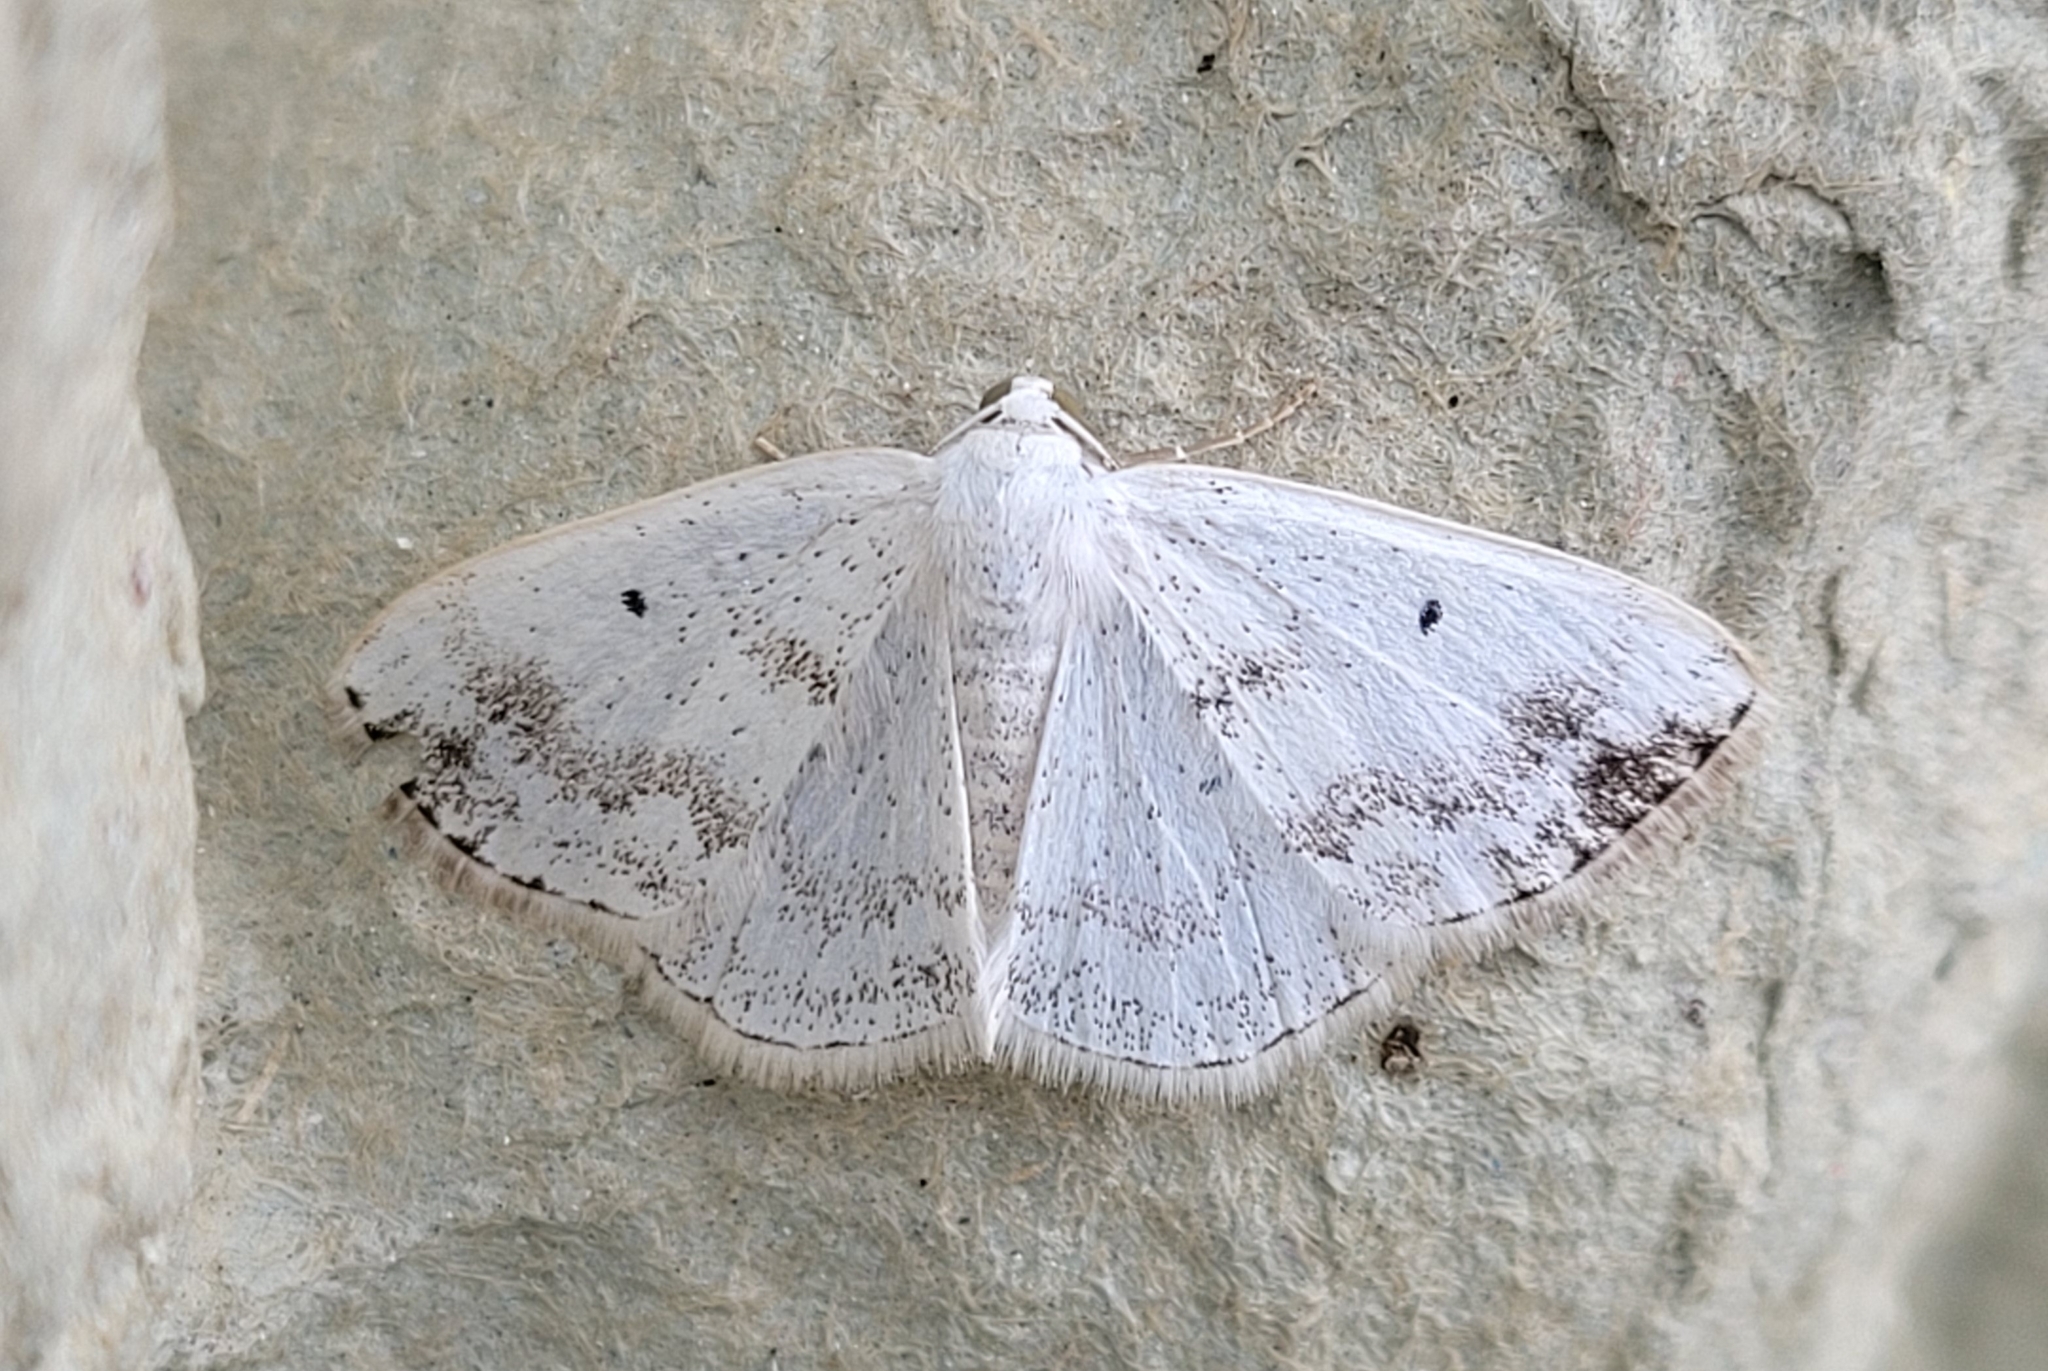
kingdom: Animalia
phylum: Arthropoda
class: Insecta
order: Lepidoptera
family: Geometridae
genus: Lomographa
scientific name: Lomographa temerata
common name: Clouded silver
